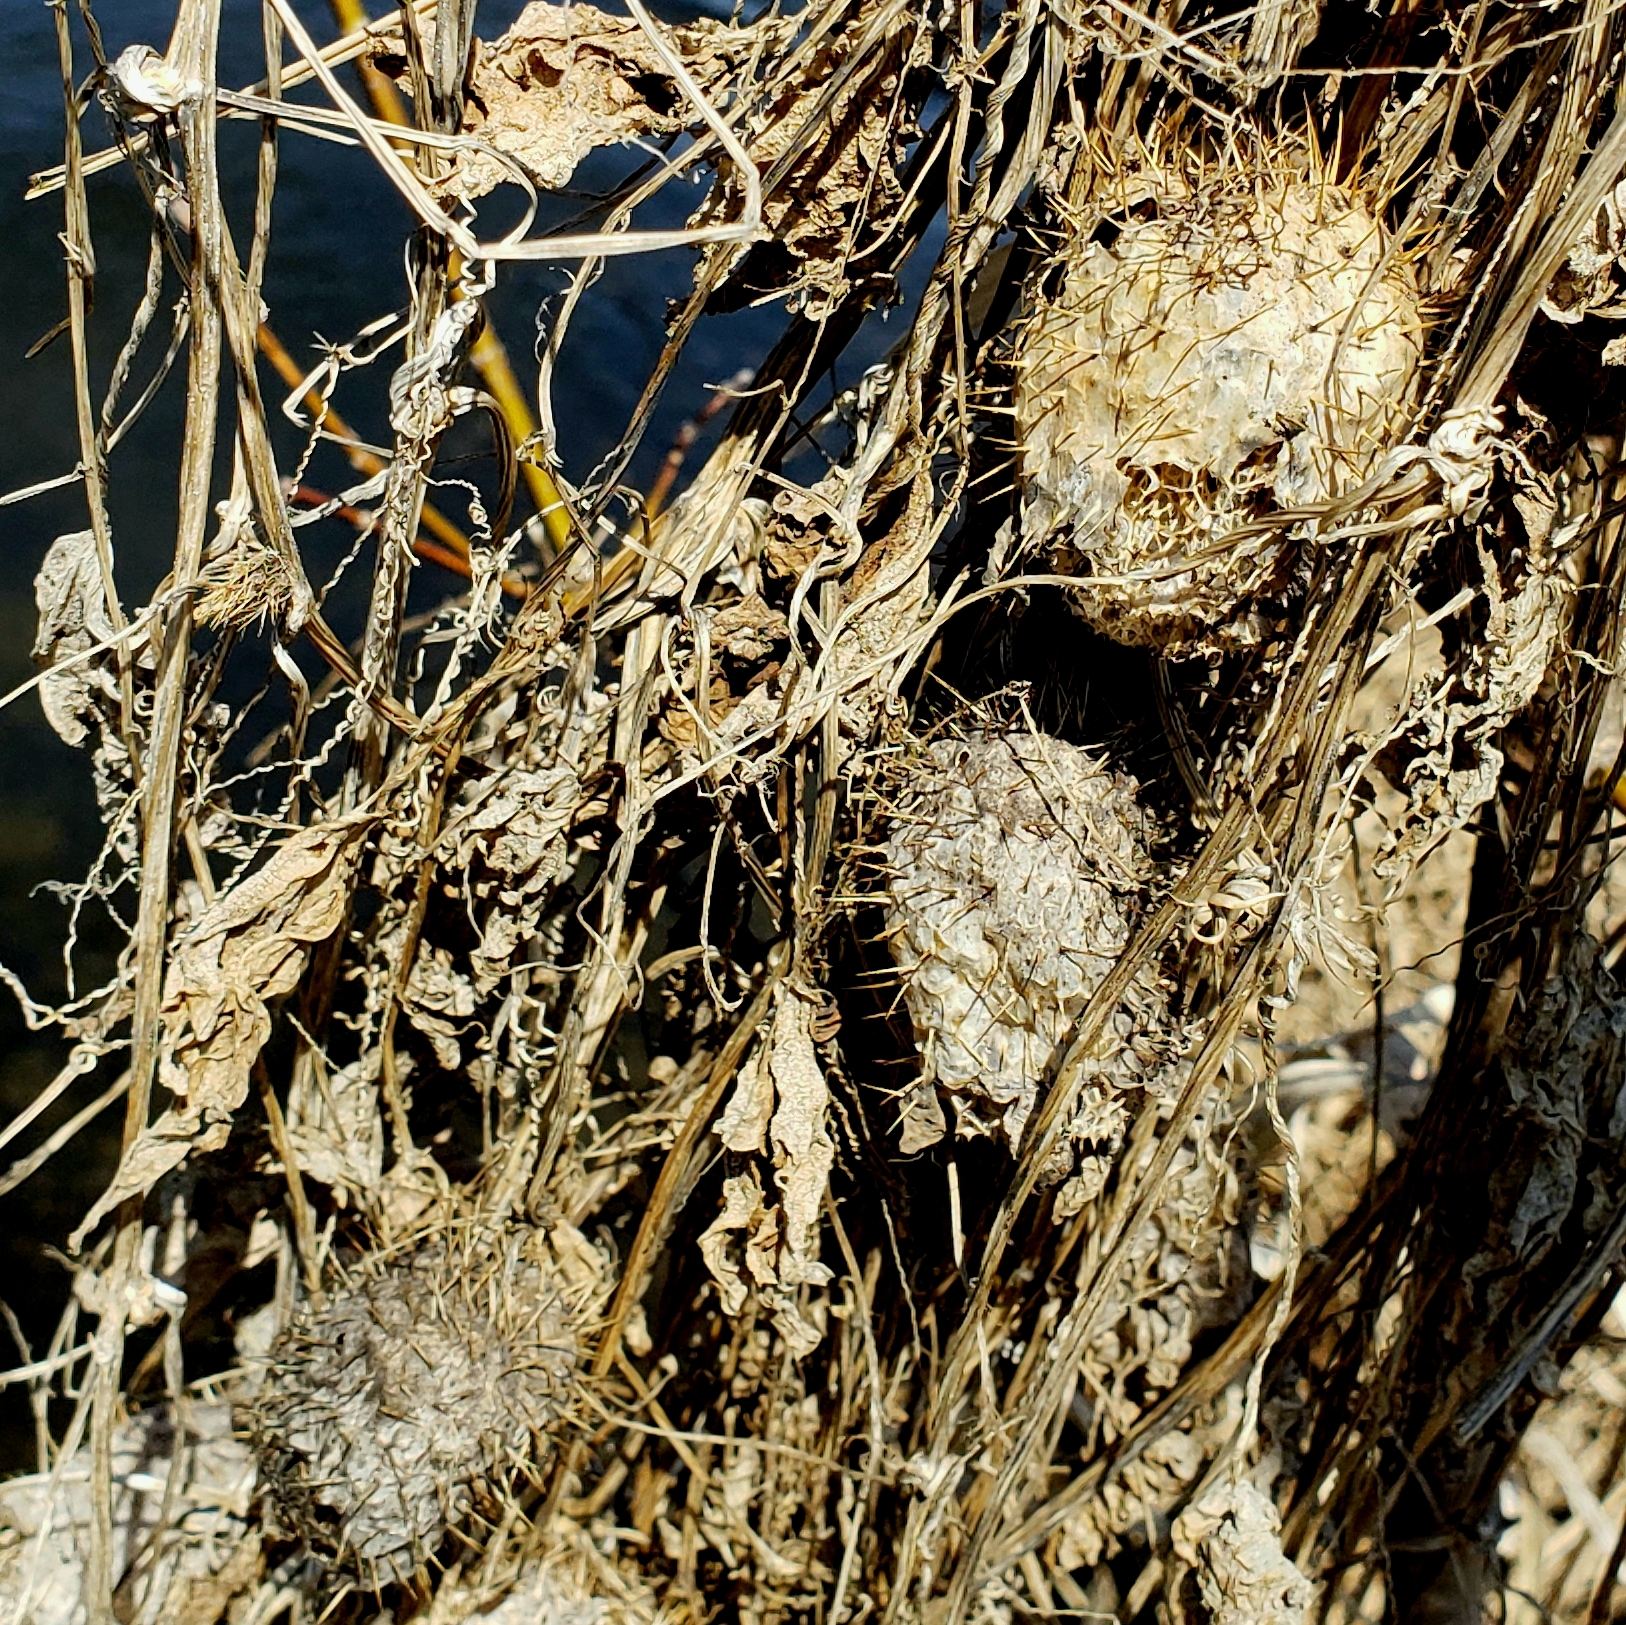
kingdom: Plantae
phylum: Tracheophyta
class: Magnoliopsida
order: Cucurbitales
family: Cucurbitaceae
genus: Echinocystis
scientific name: Echinocystis lobata
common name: Wild cucumber
